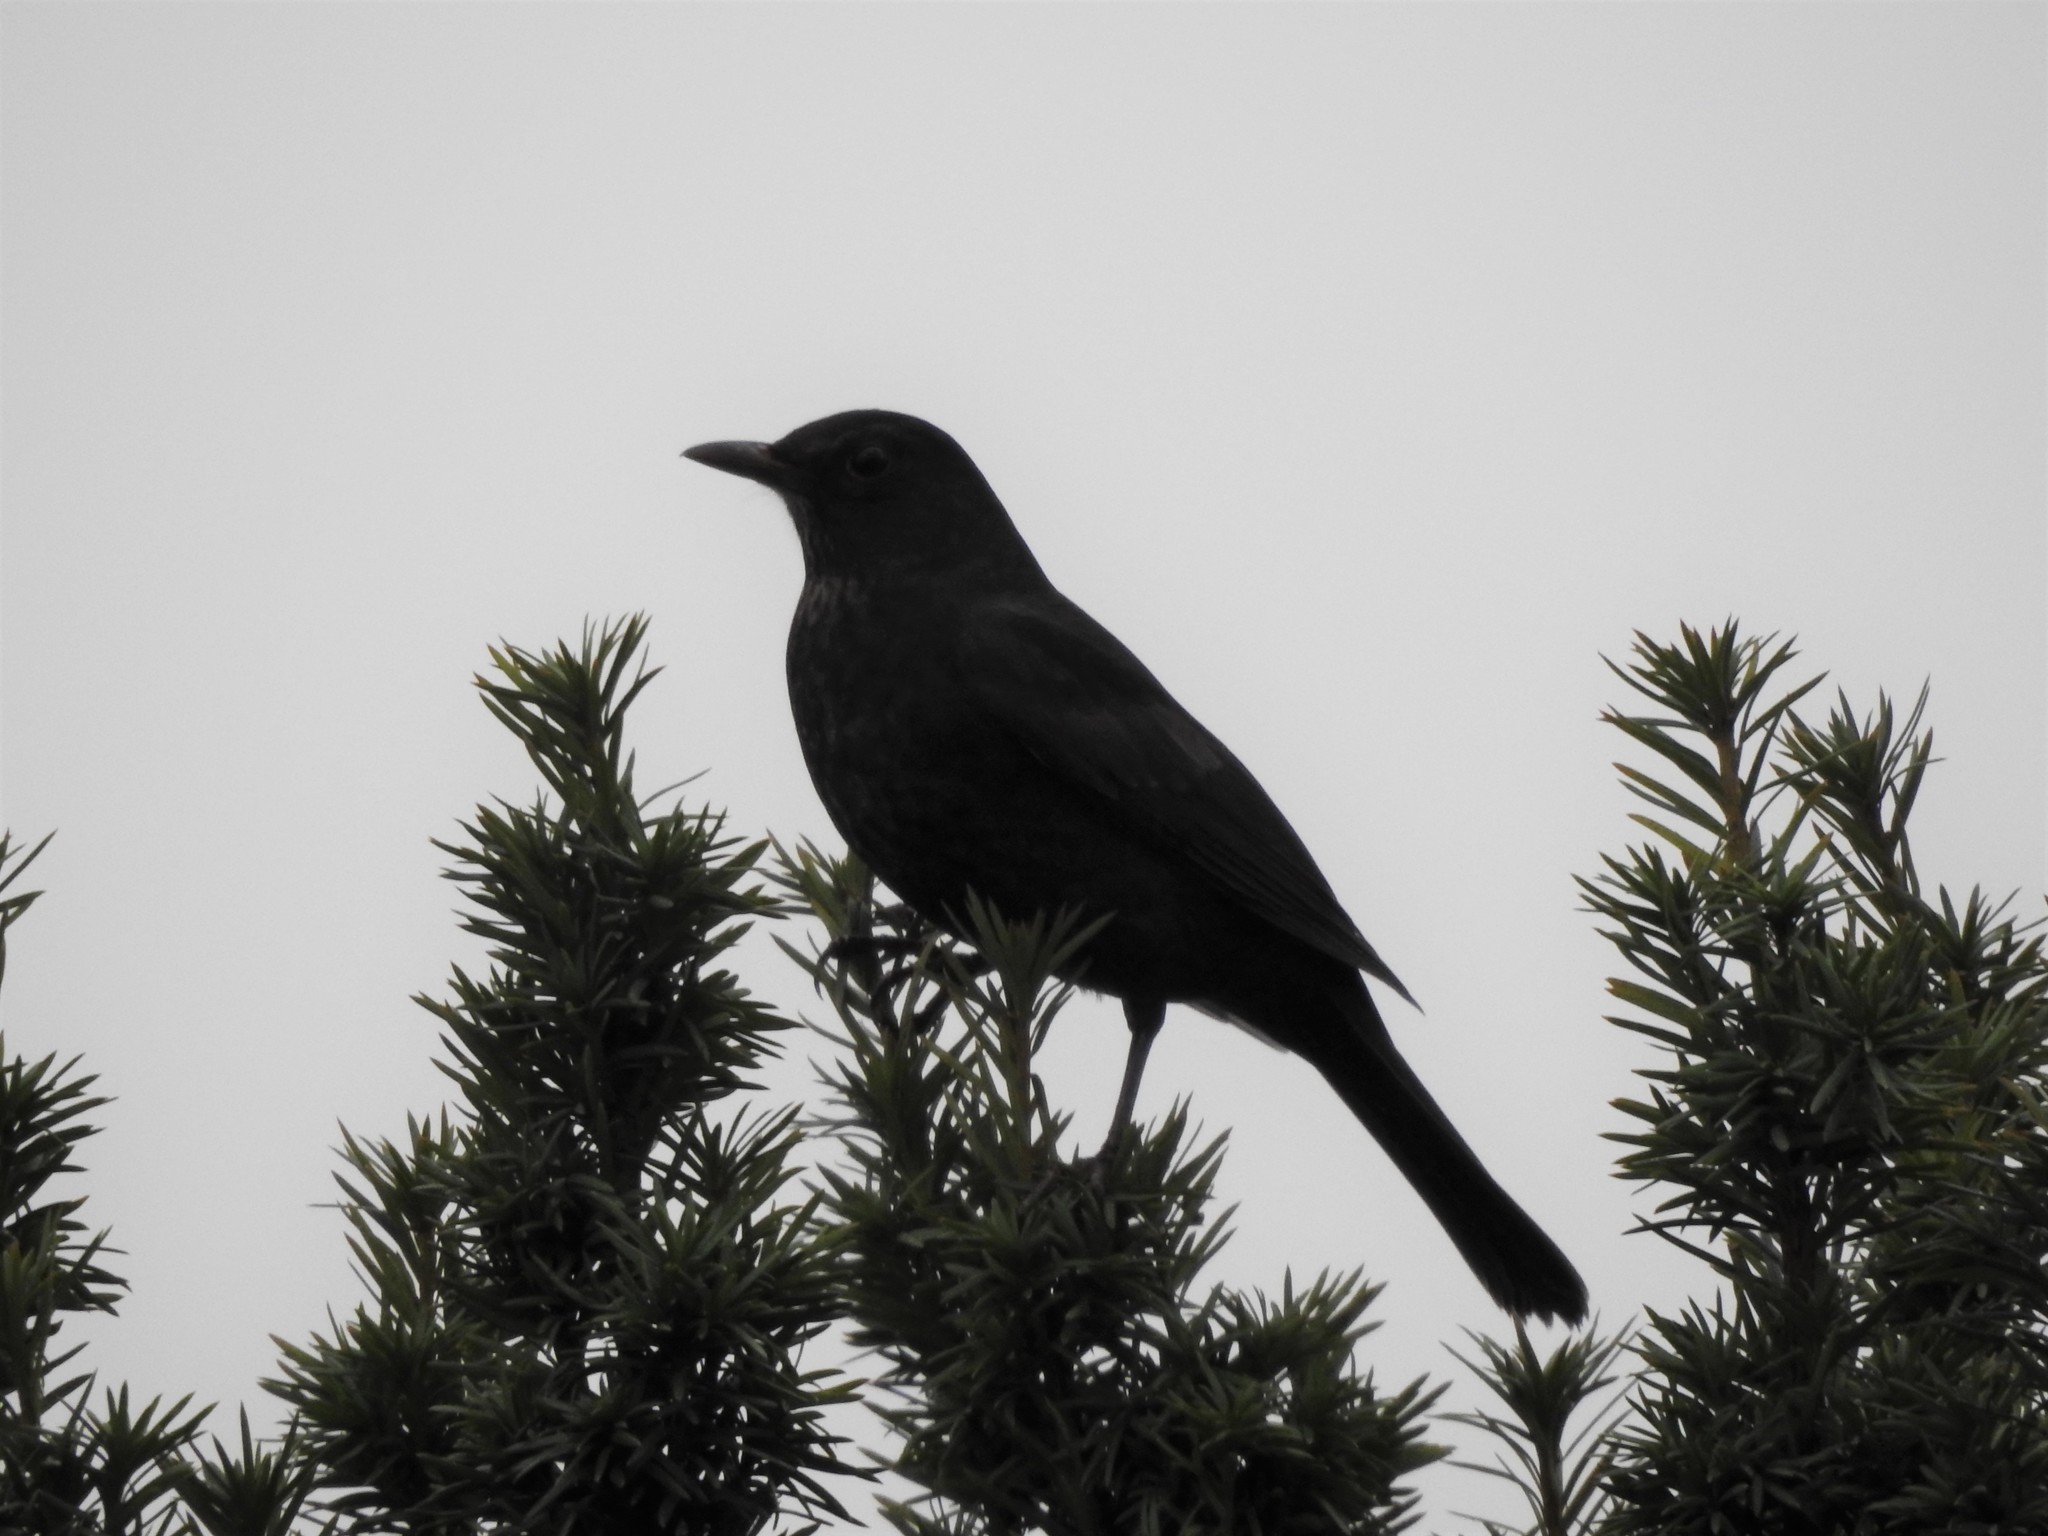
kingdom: Animalia
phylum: Chordata
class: Aves
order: Passeriformes
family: Turdidae
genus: Turdus
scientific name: Turdus merula
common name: Common blackbird
